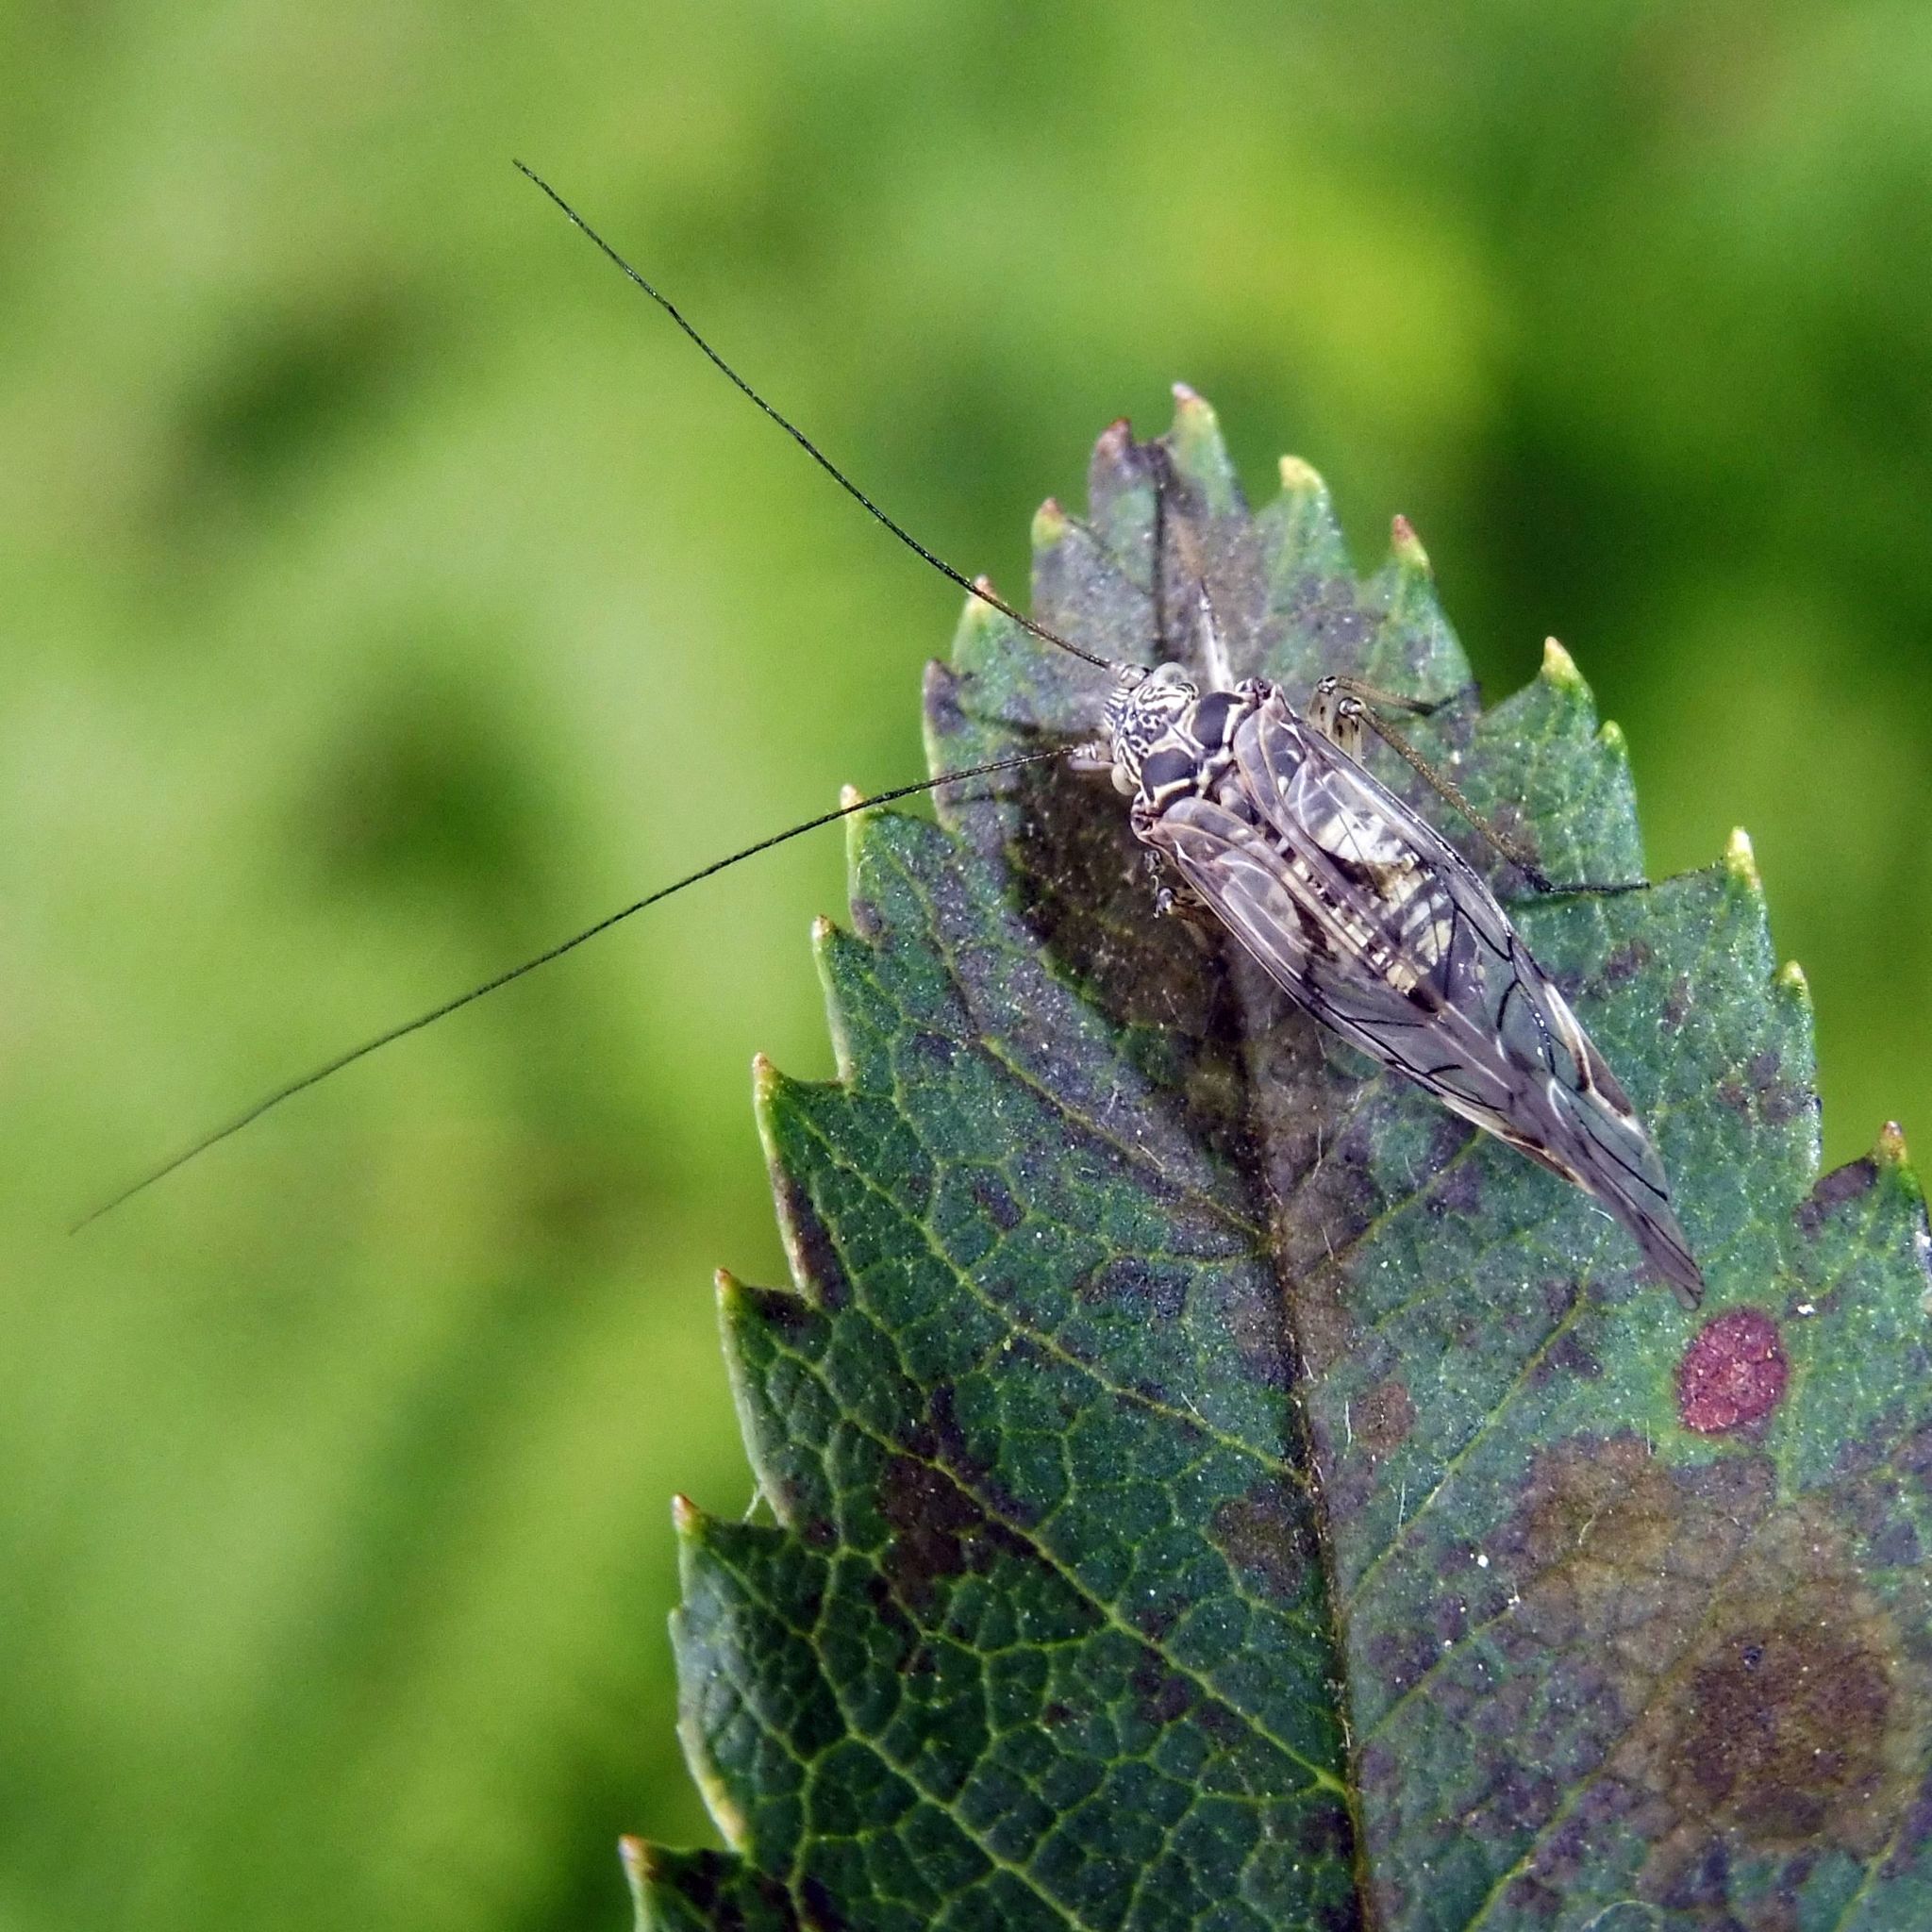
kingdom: Animalia
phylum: Arthropoda
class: Insecta
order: Psocodea
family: Psocidae
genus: Psococerastis
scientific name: Psococerastis gibbosa
